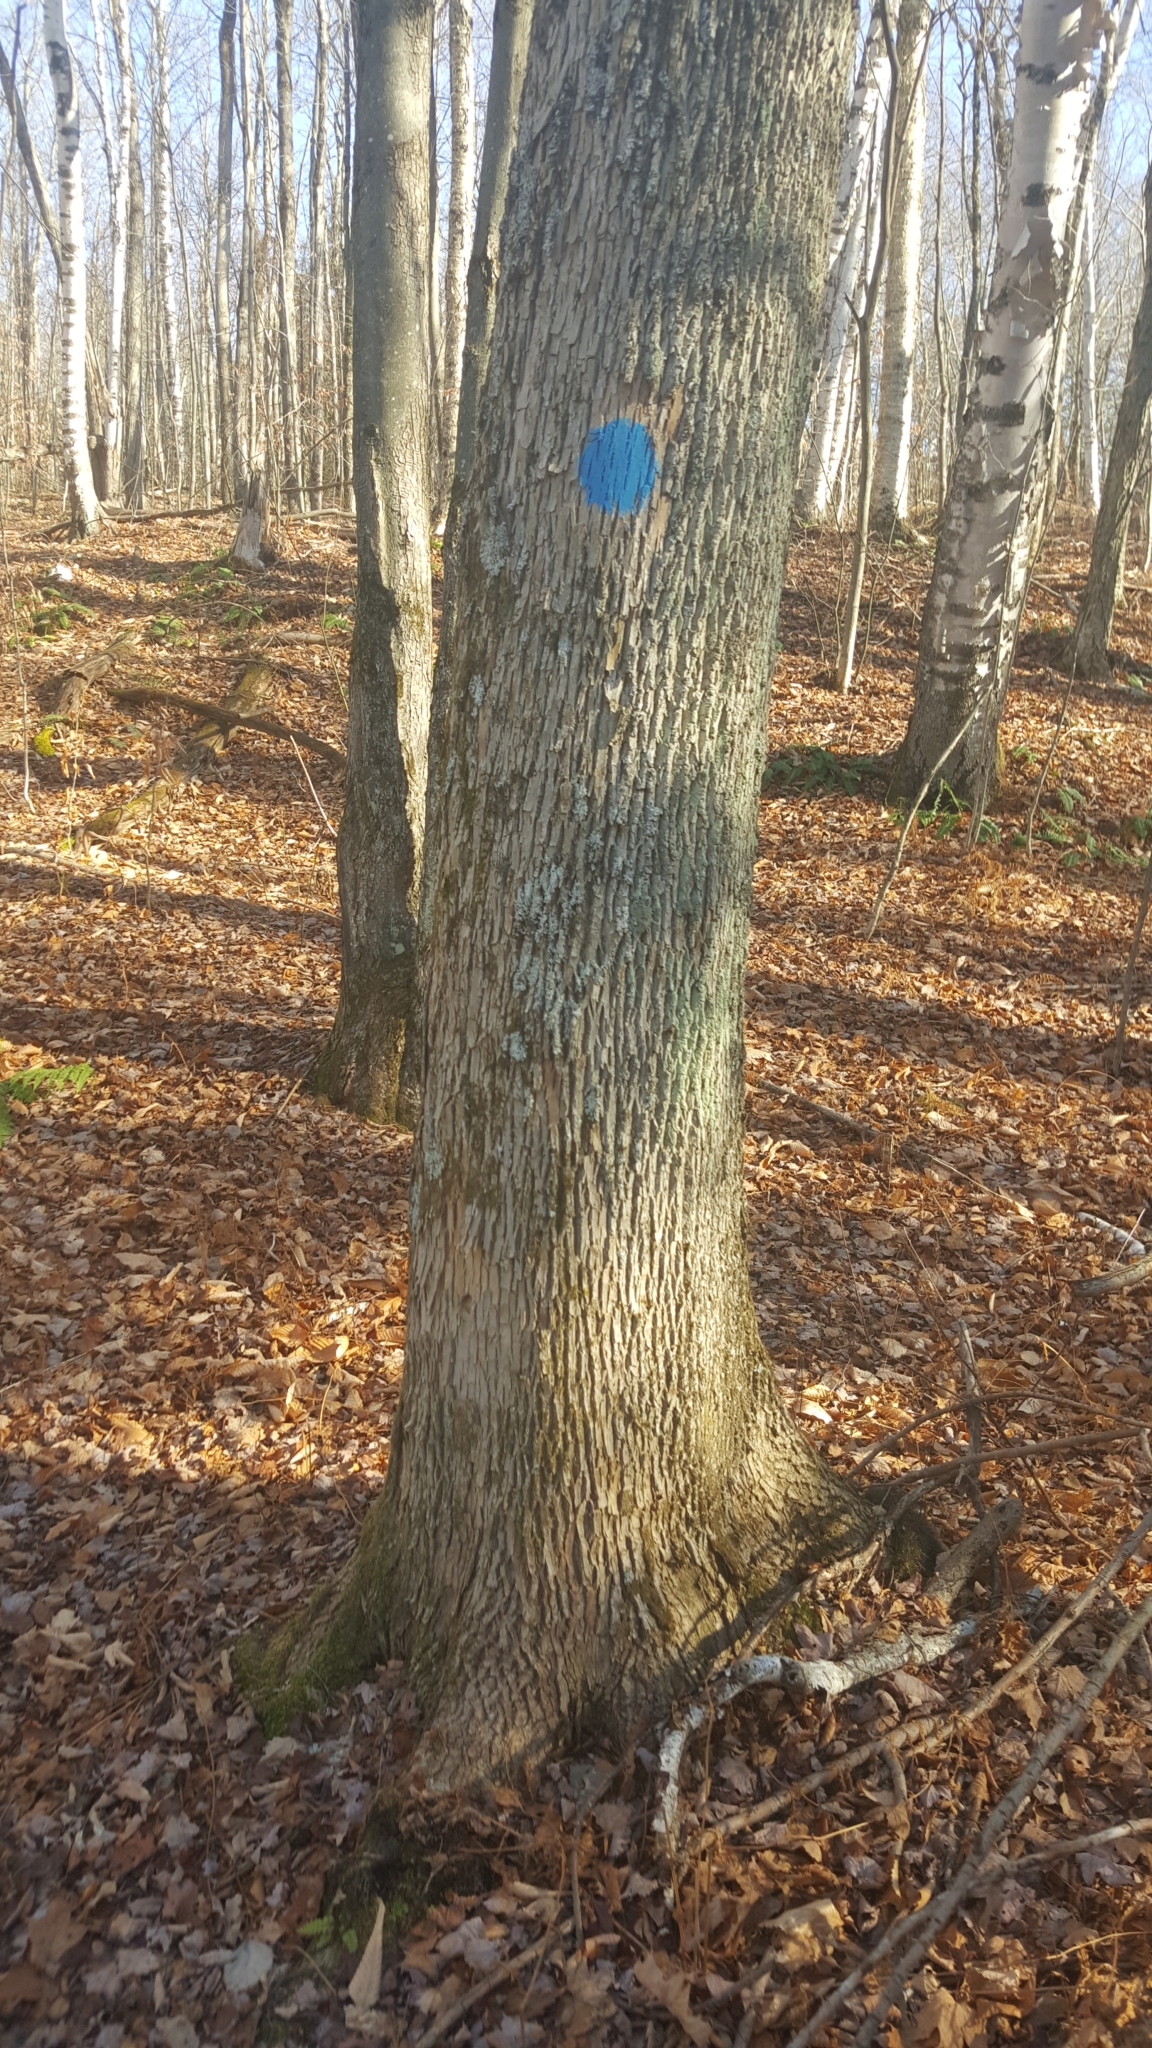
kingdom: Plantae
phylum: Tracheophyta
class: Magnoliopsida
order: Lamiales
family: Oleaceae
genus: Fraxinus
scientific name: Fraxinus americana
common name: White ash
